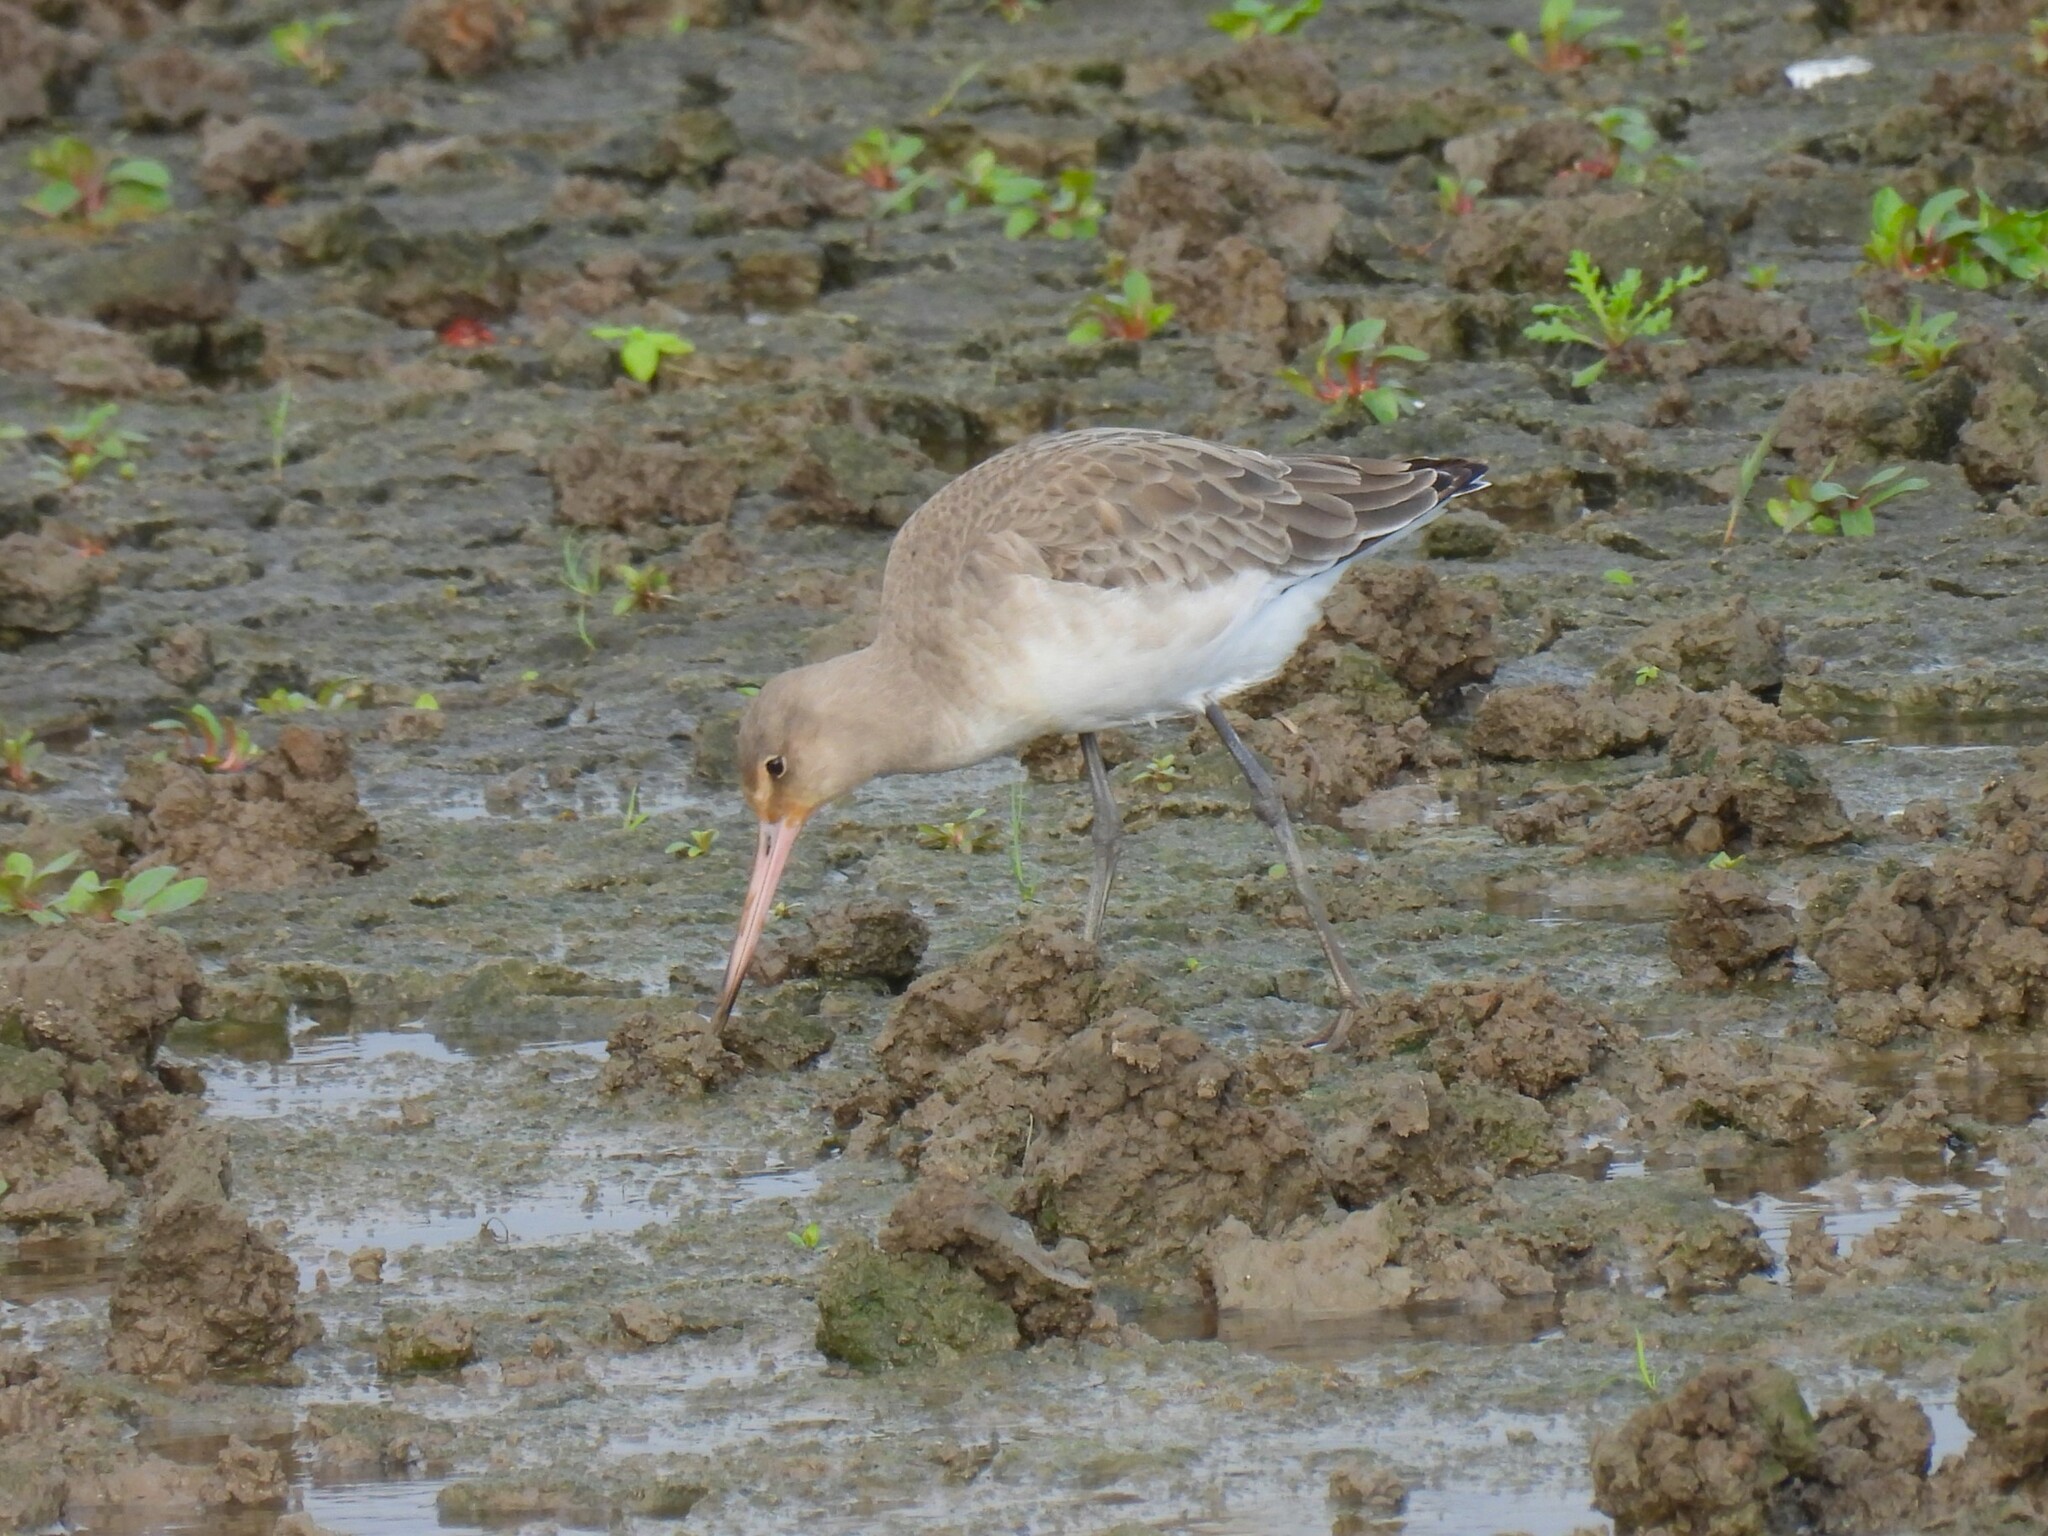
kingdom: Animalia
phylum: Chordata
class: Aves
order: Charadriiformes
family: Scolopacidae
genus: Limosa
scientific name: Limosa limosa
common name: Black-tailed godwit
